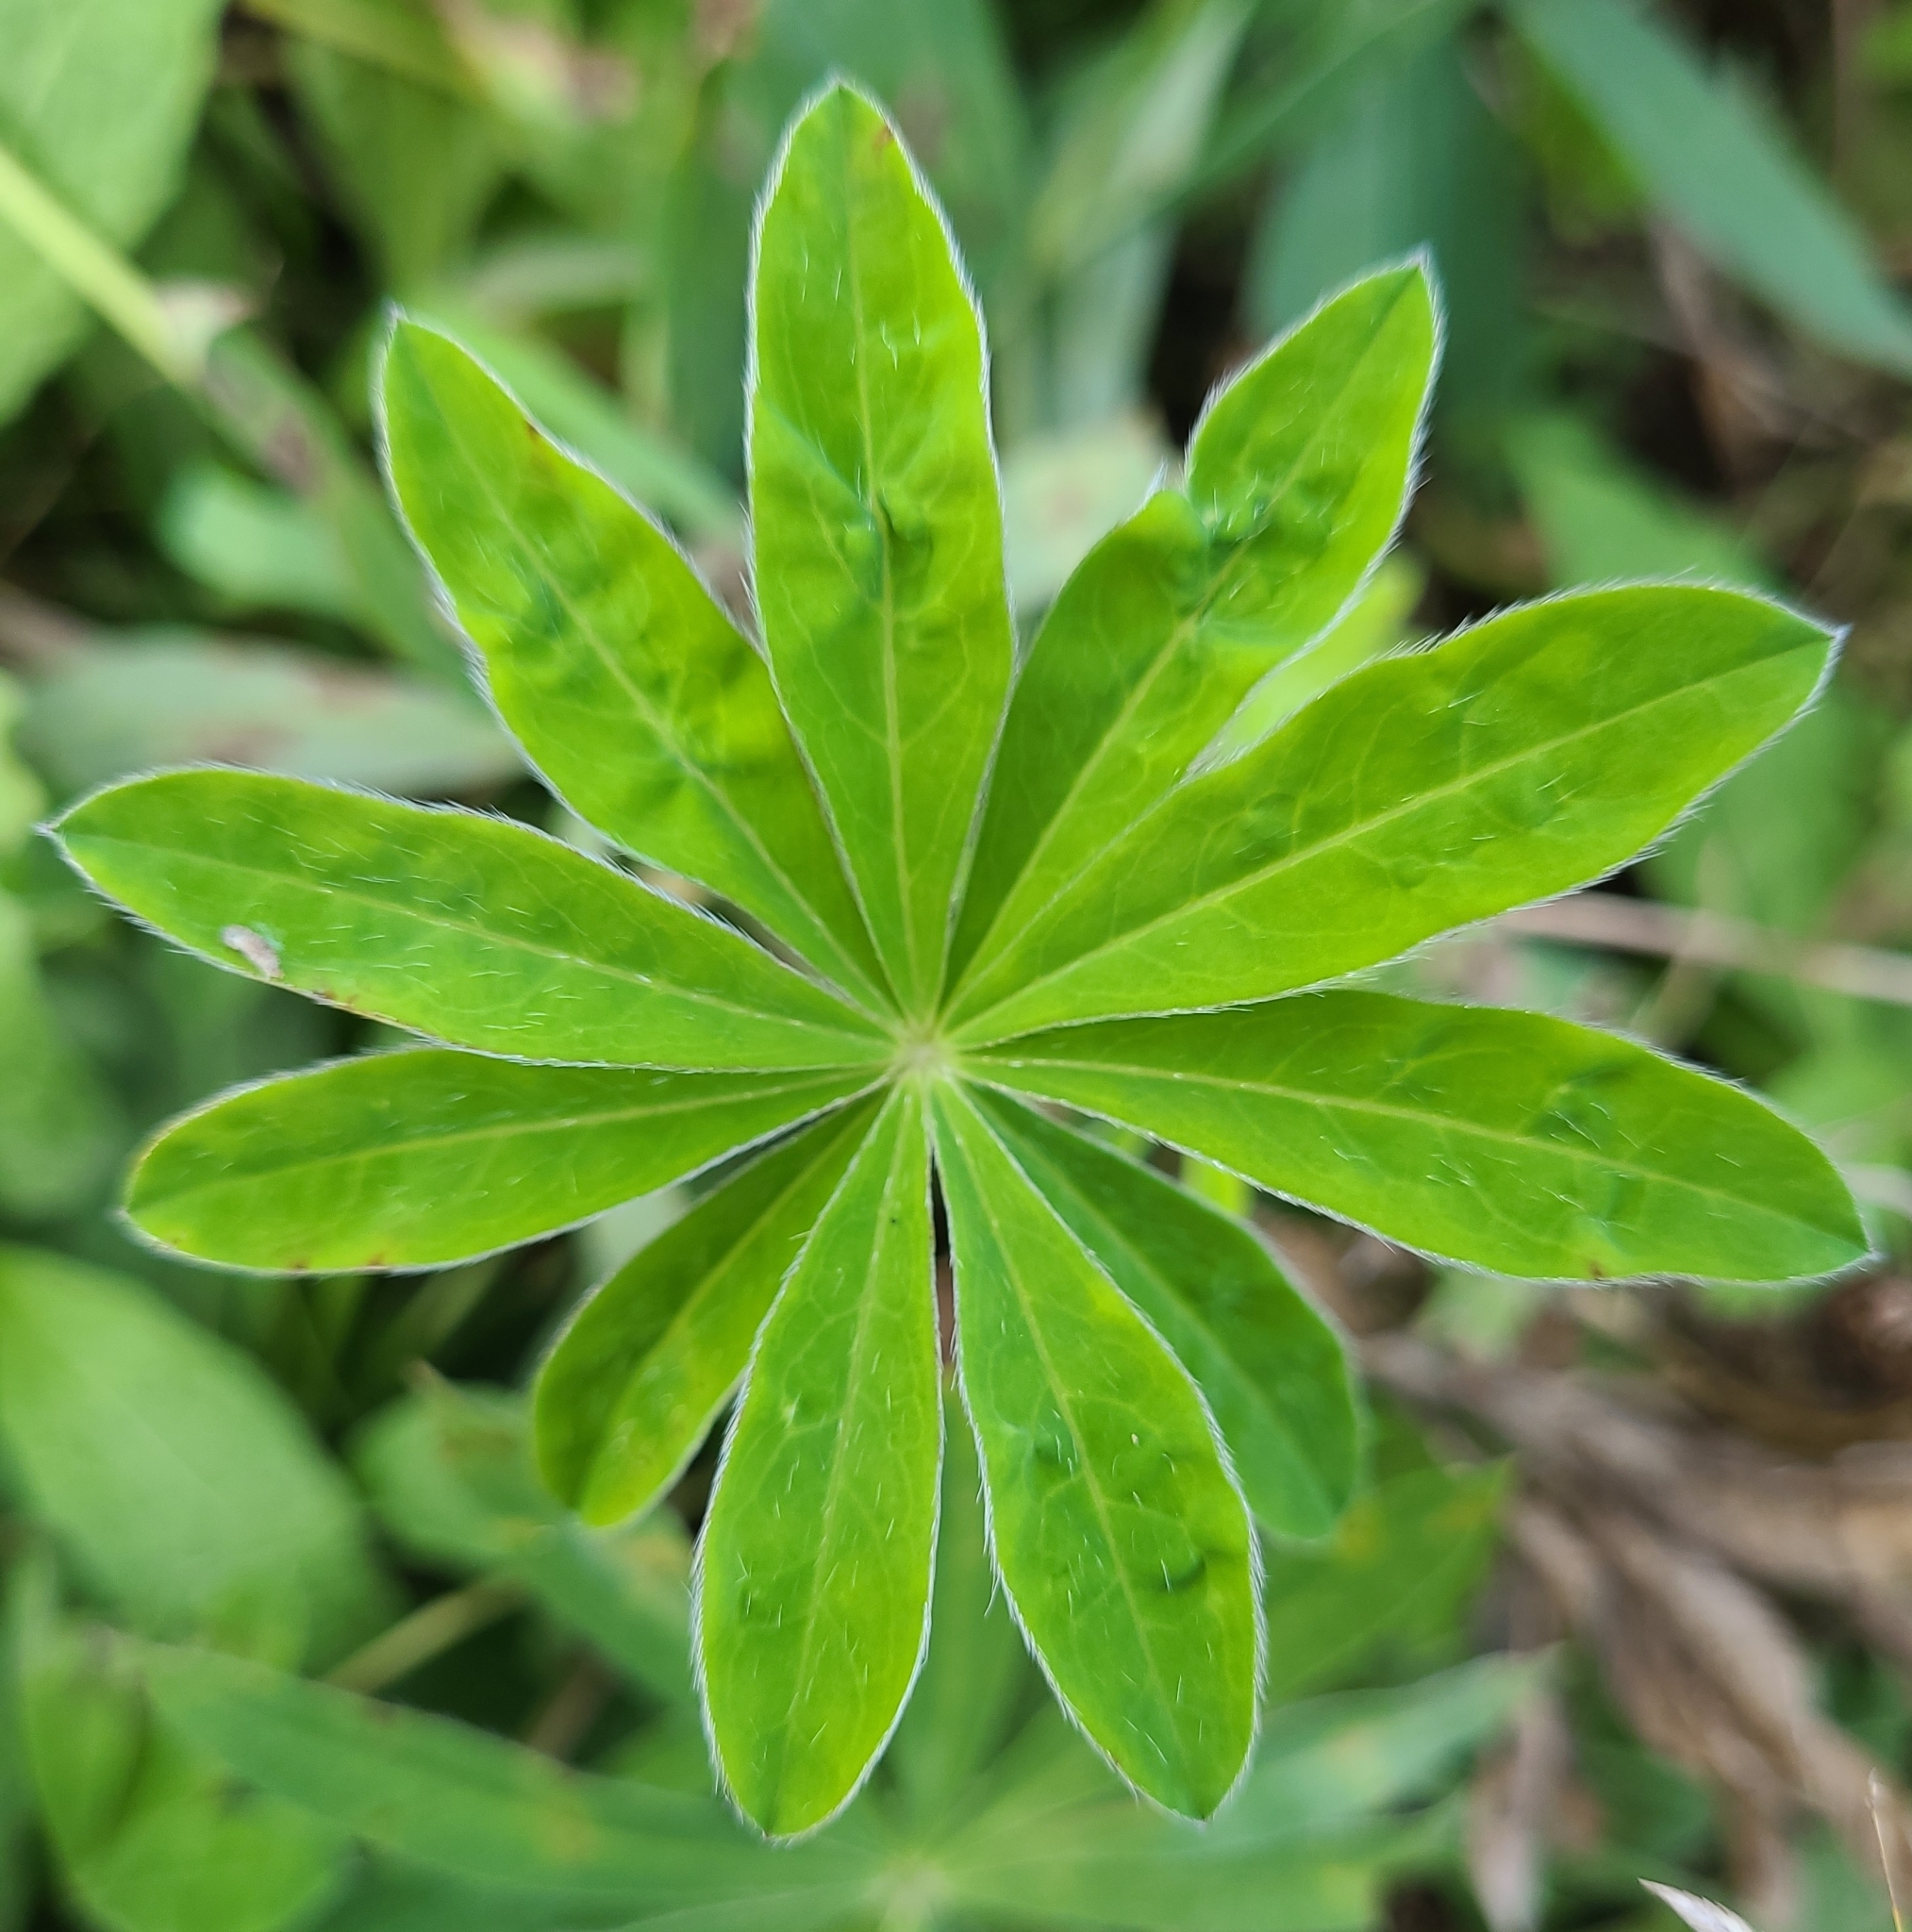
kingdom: Plantae
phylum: Tracheophyta
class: Magnoliopsida
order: Fabales
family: Fabaceae
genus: Lupinus
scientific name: Lupinus polyphyllus
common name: Garden lupin
